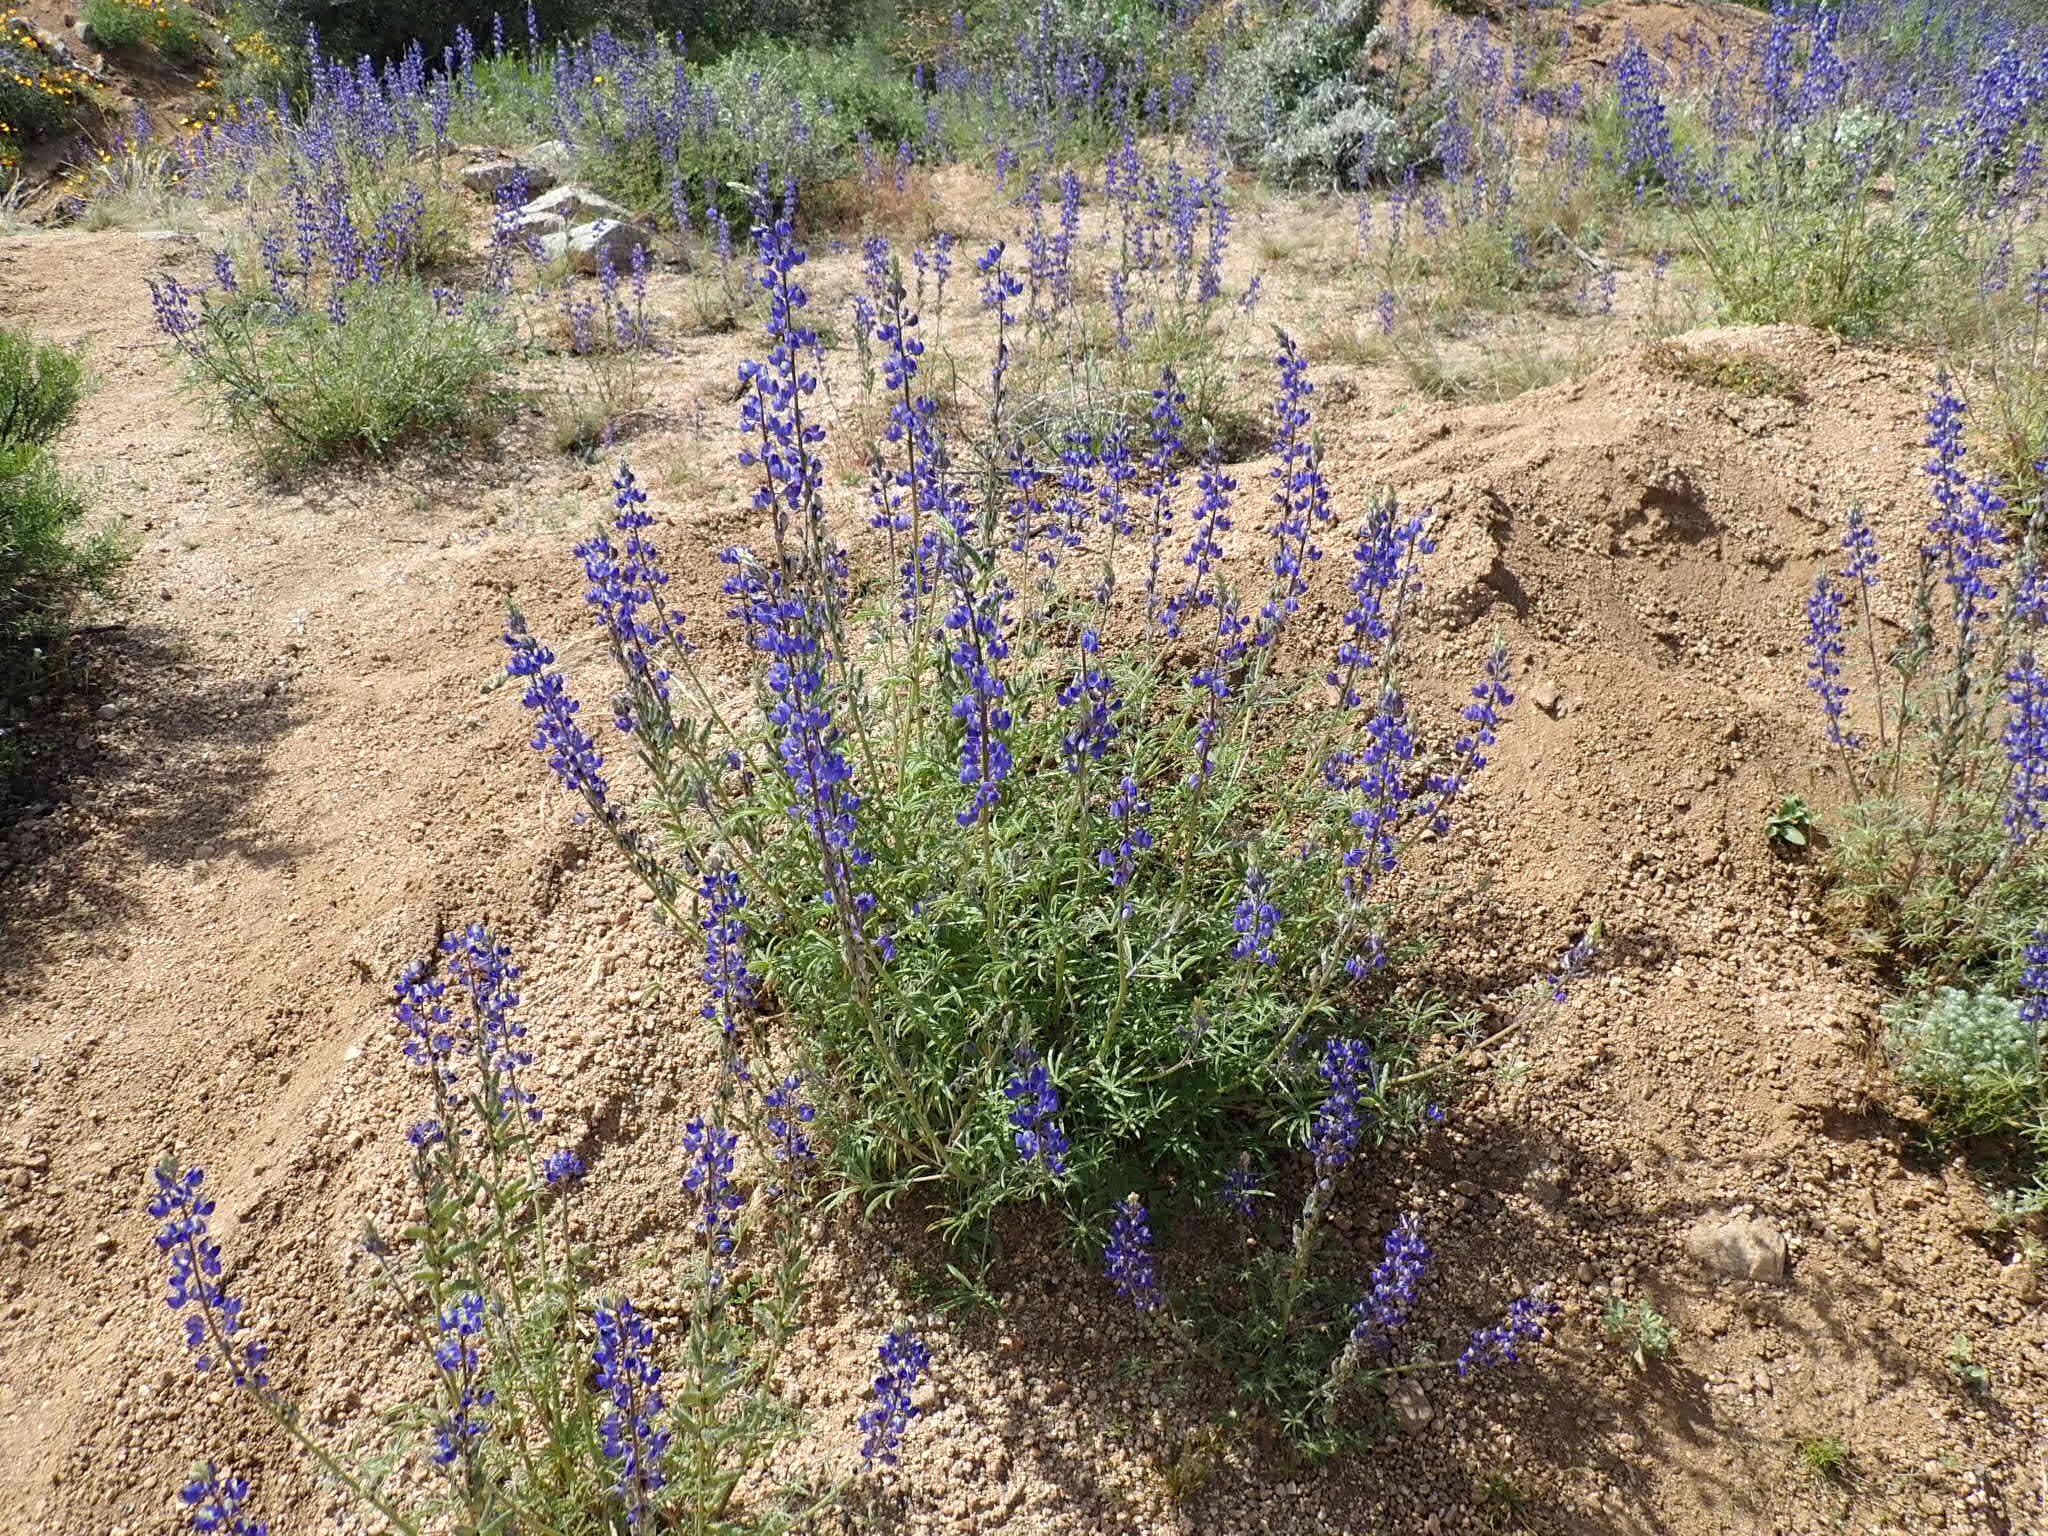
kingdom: Plantae
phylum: Tracheophyta
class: Magnoliopsida
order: Fabales
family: Fabaceae
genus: Lupinus
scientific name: Lupinus sparsiflorus
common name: Coulter's lupine
